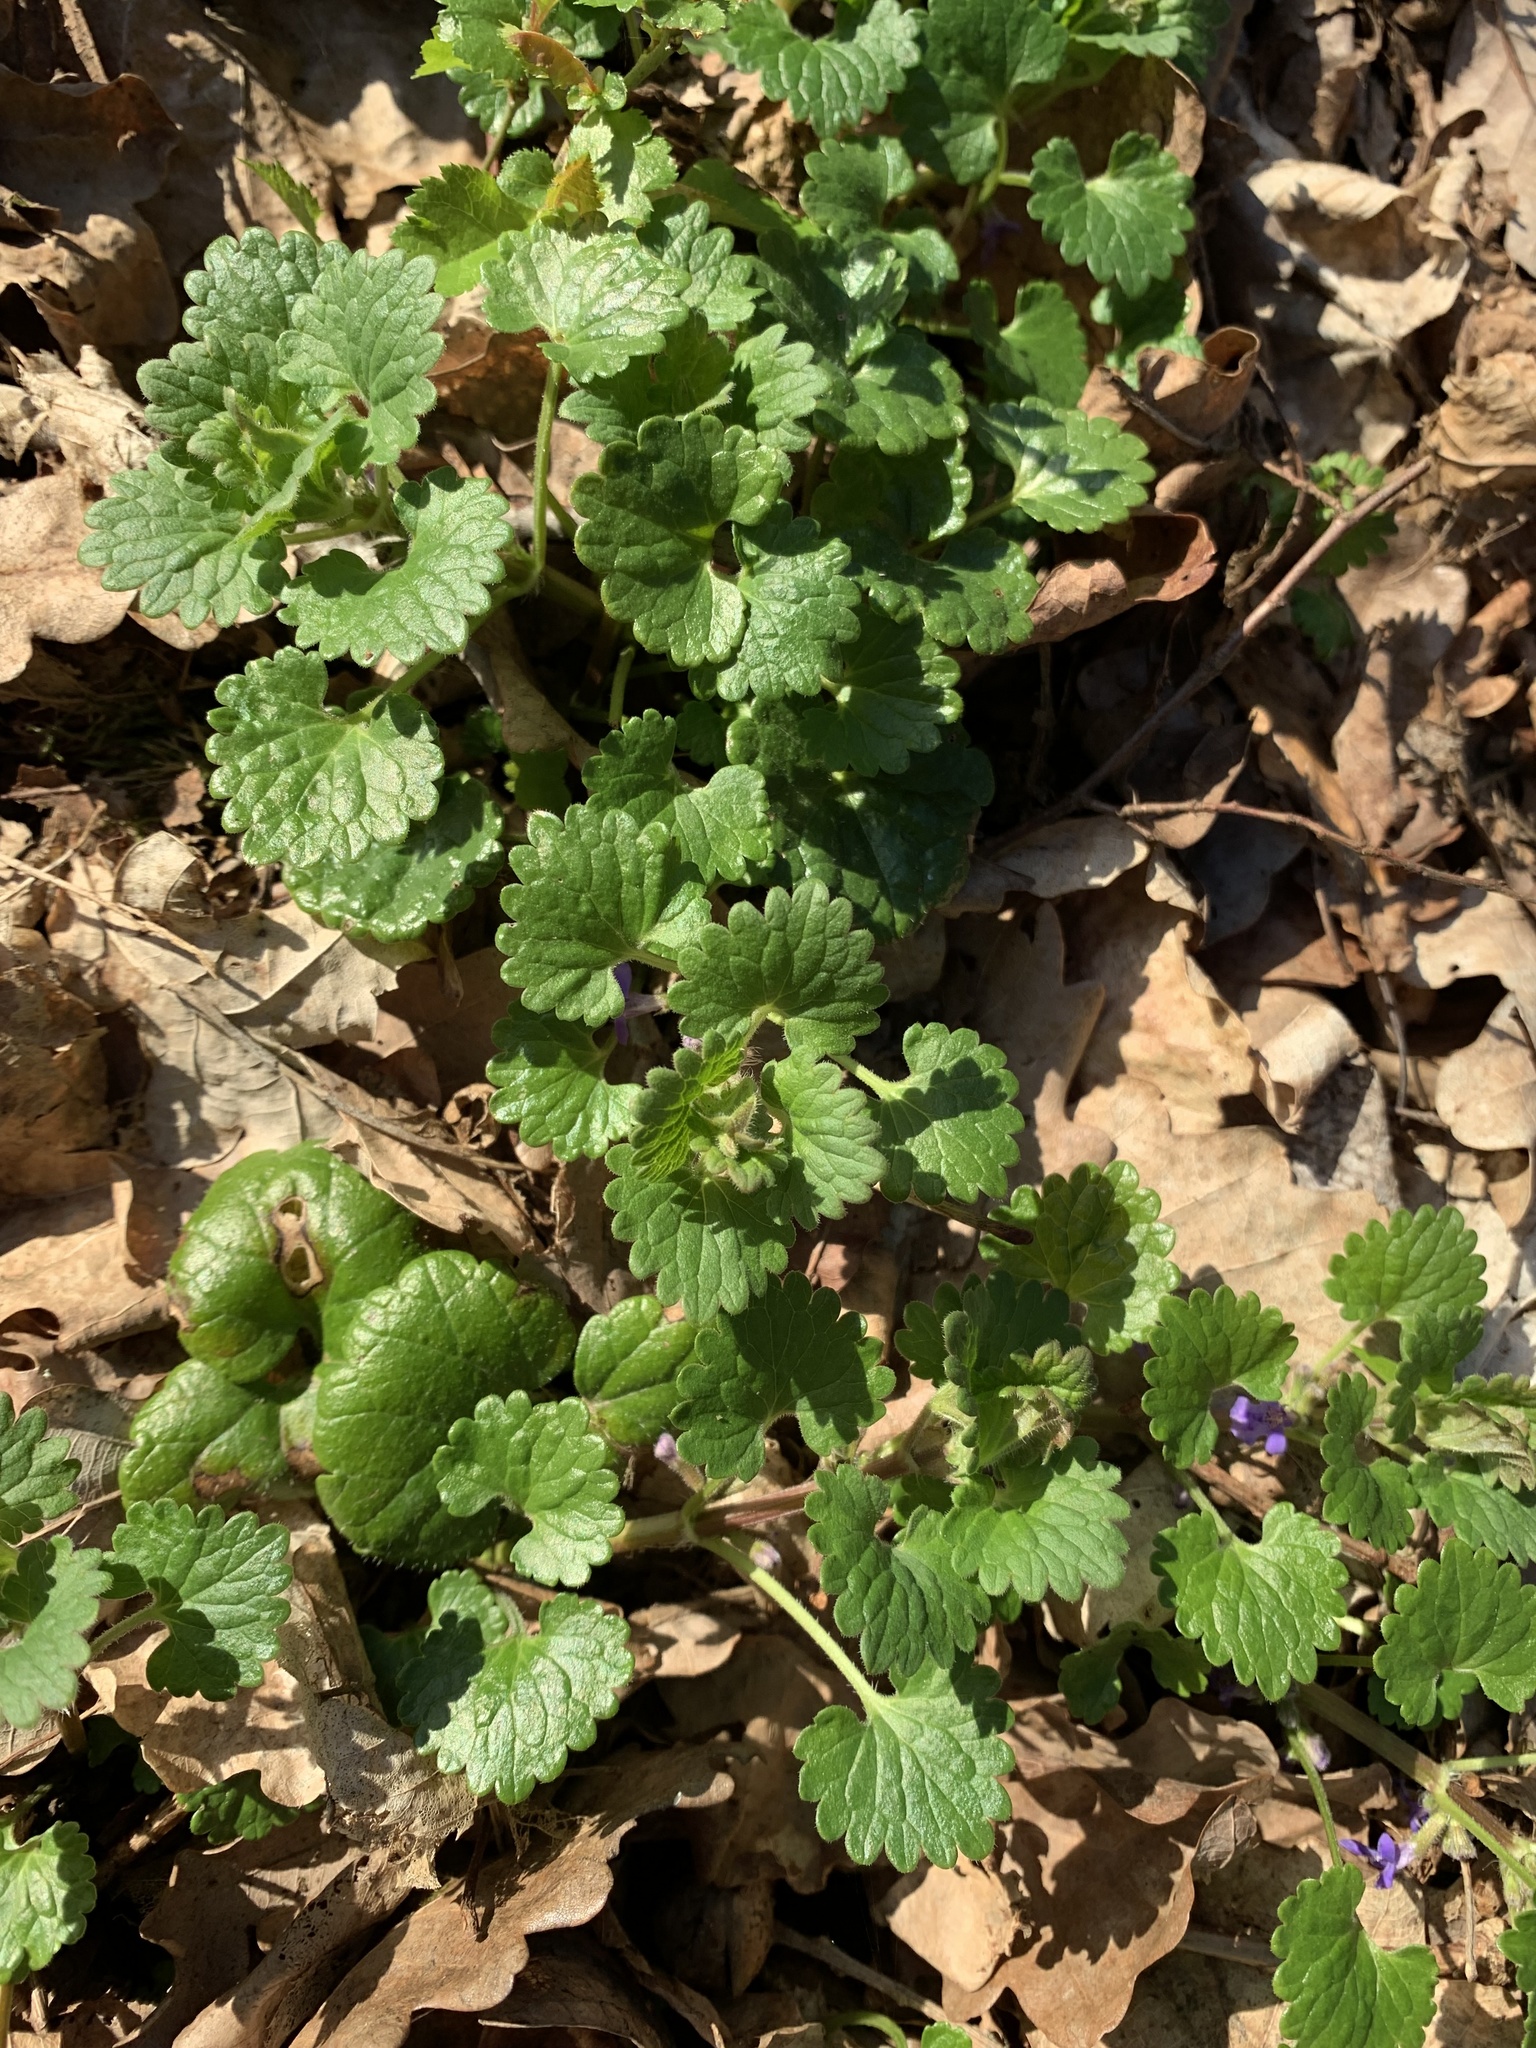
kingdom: Plantae
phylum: Tracheophyta
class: Magnoliopsida
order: Lamiales
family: Lamiaceae
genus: Glechoma
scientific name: Glechoma hederacea
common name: Ground ivy
